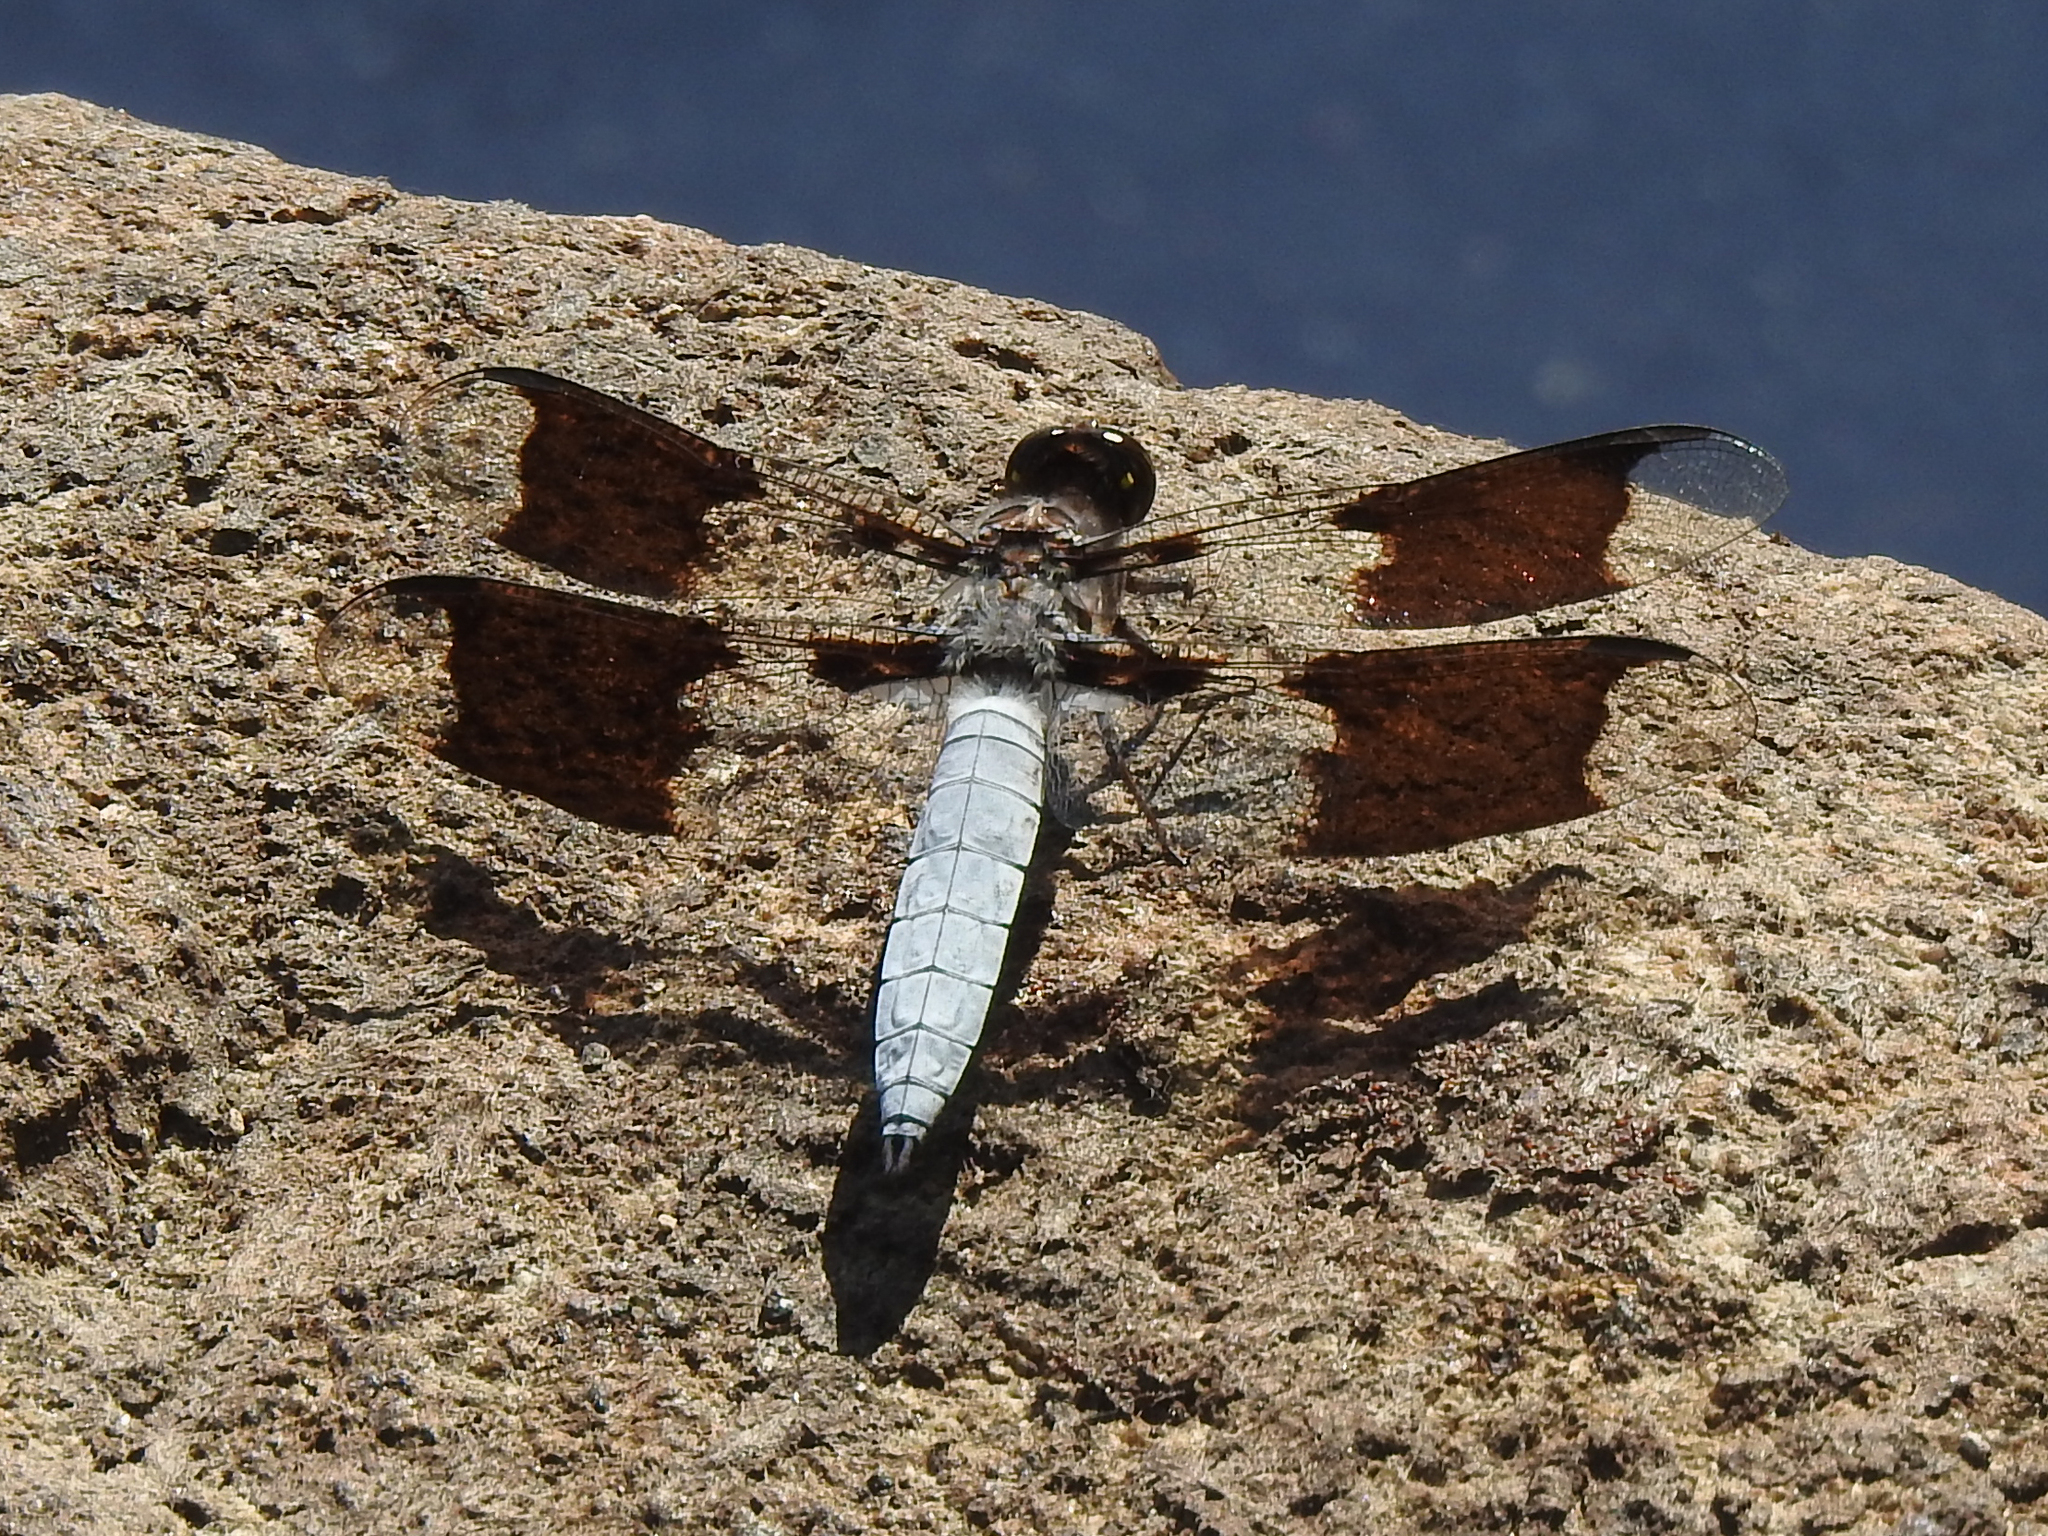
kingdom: Animalia
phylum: Arthropoda
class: Insecta
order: Odonata
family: Libellulidae
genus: Plathemis
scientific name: Plathemis lydia
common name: Common whitetail
